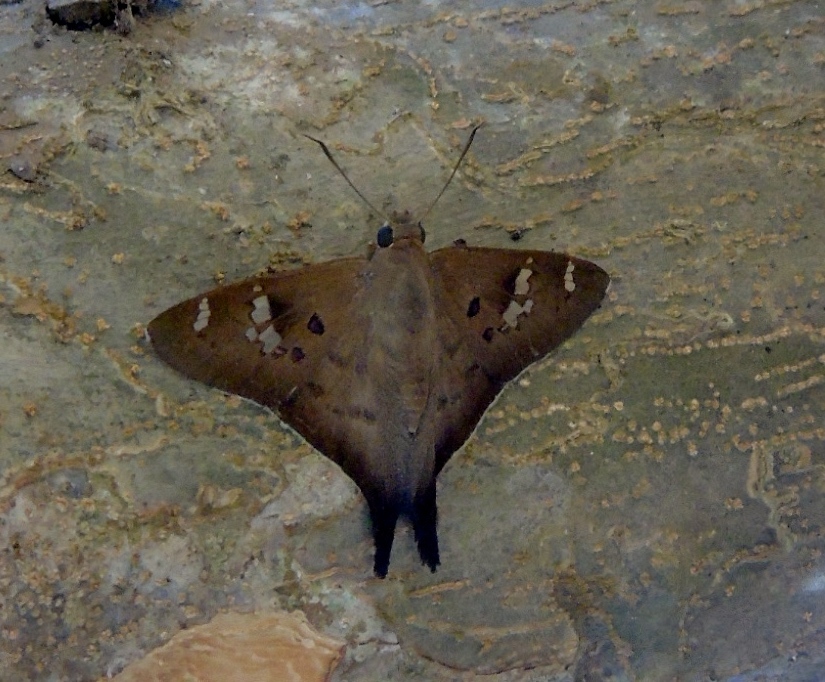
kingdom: Animalia
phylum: Arthropoda
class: Insecta
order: Lepidoptera
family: Hesperiidae
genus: Ectomis
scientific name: Ectomis
